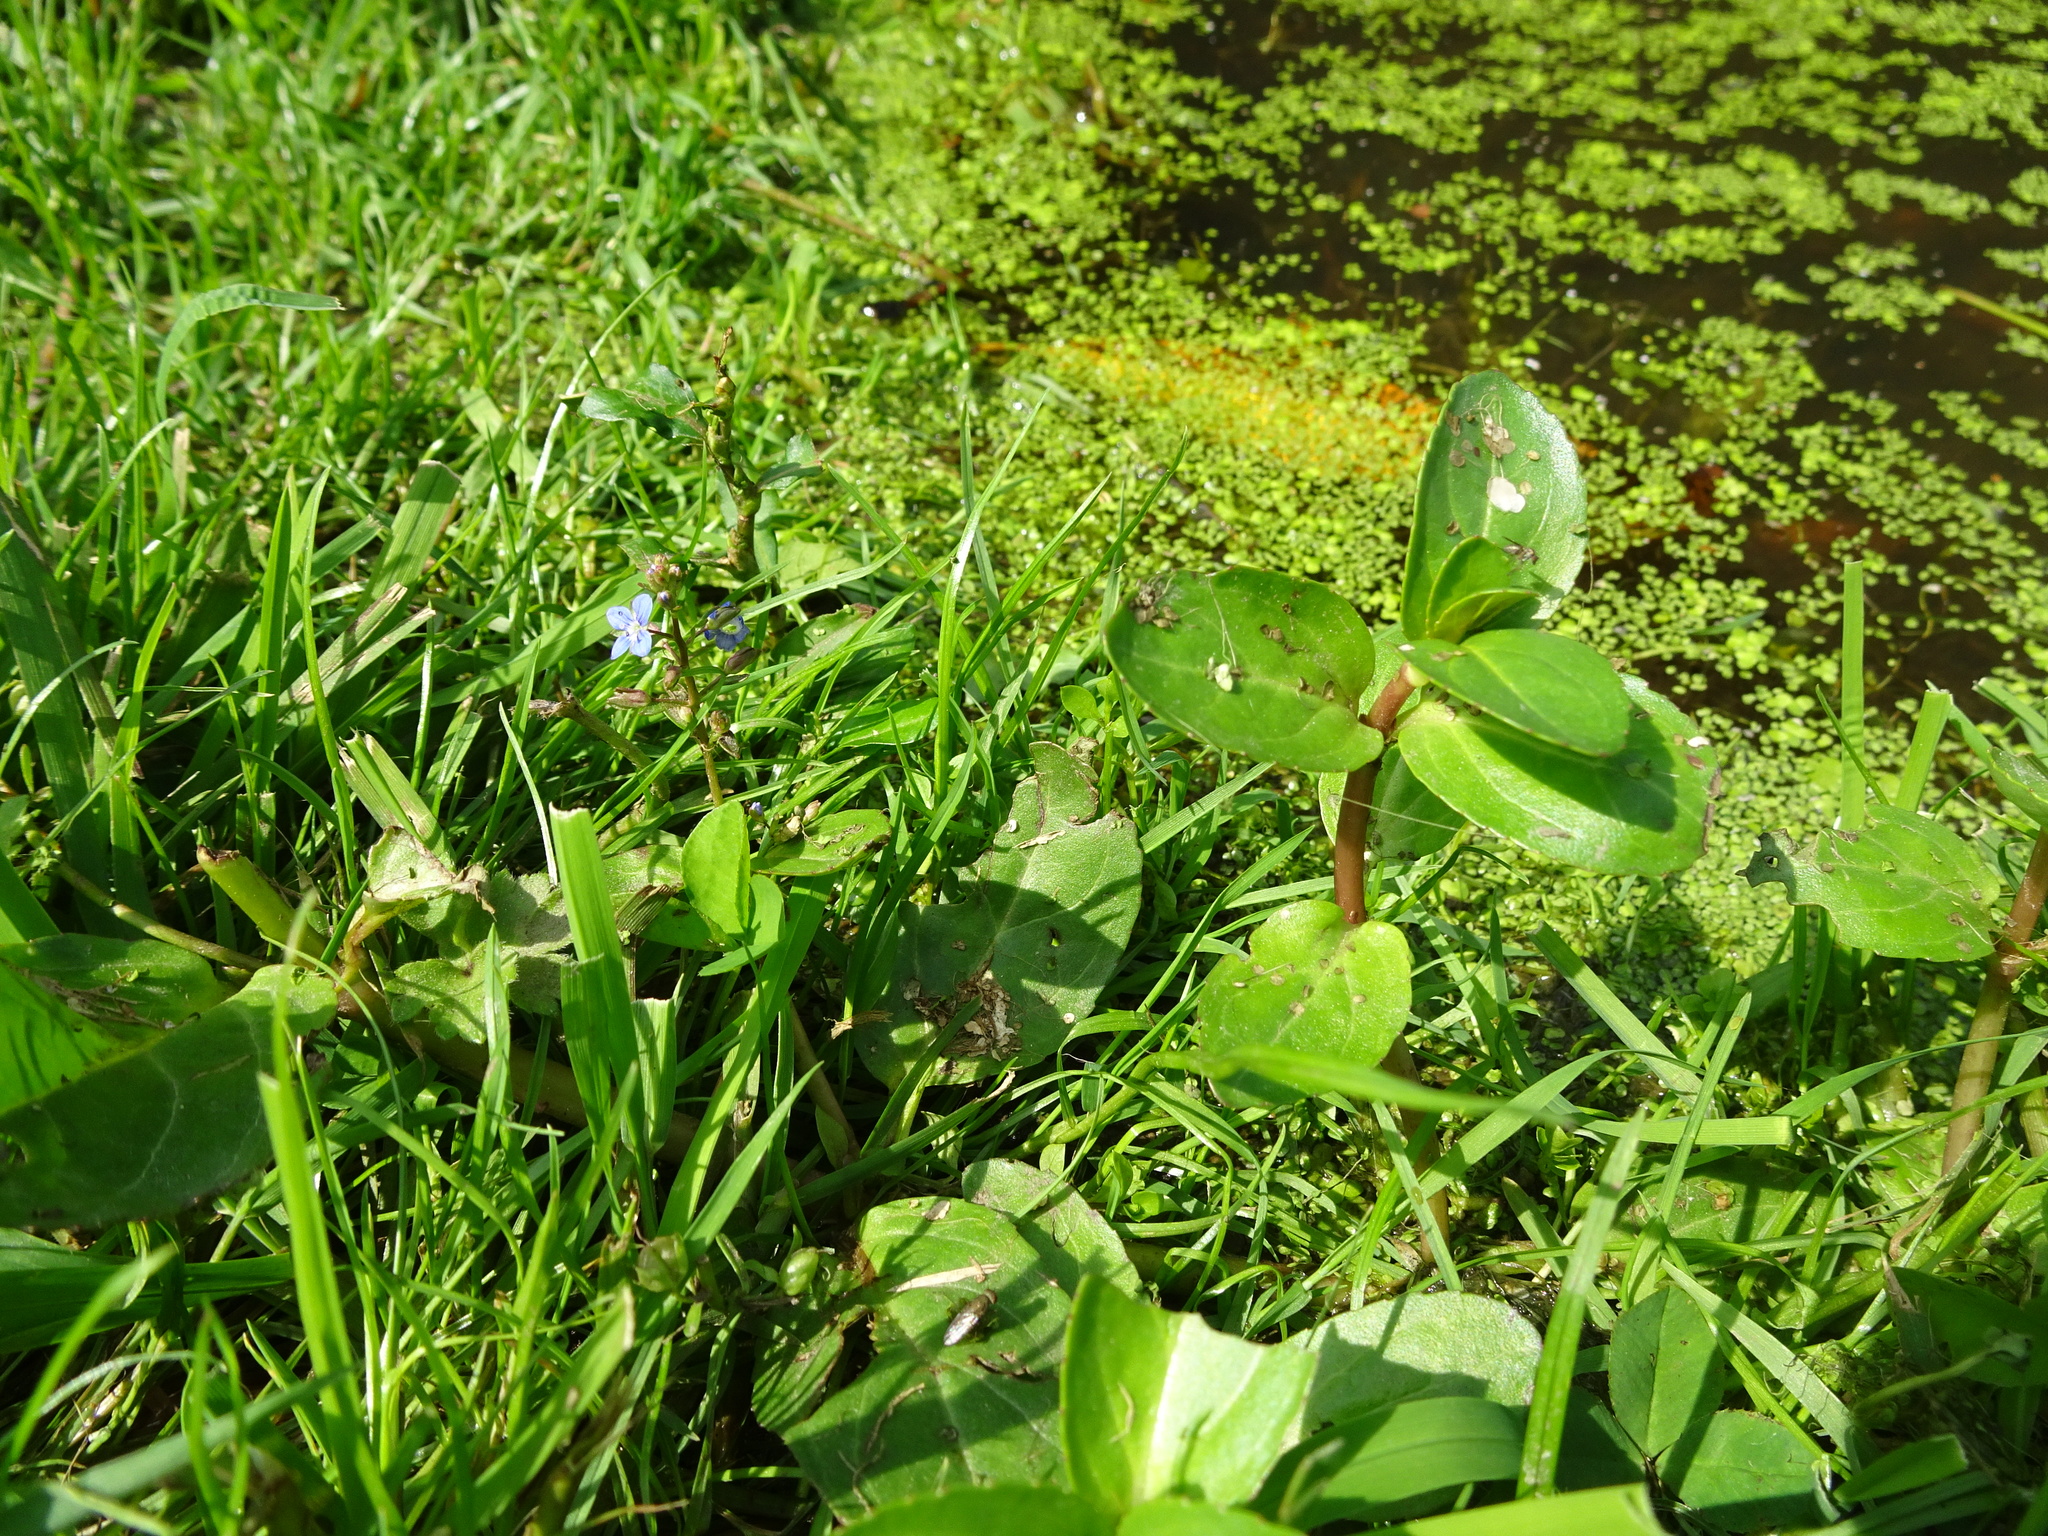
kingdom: Plantae
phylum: Tracheophyta
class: Magnoliopsida
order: Lamiales
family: Plantaginaceae
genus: Veronica
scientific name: Veronica beccabunga
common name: Brooklime
